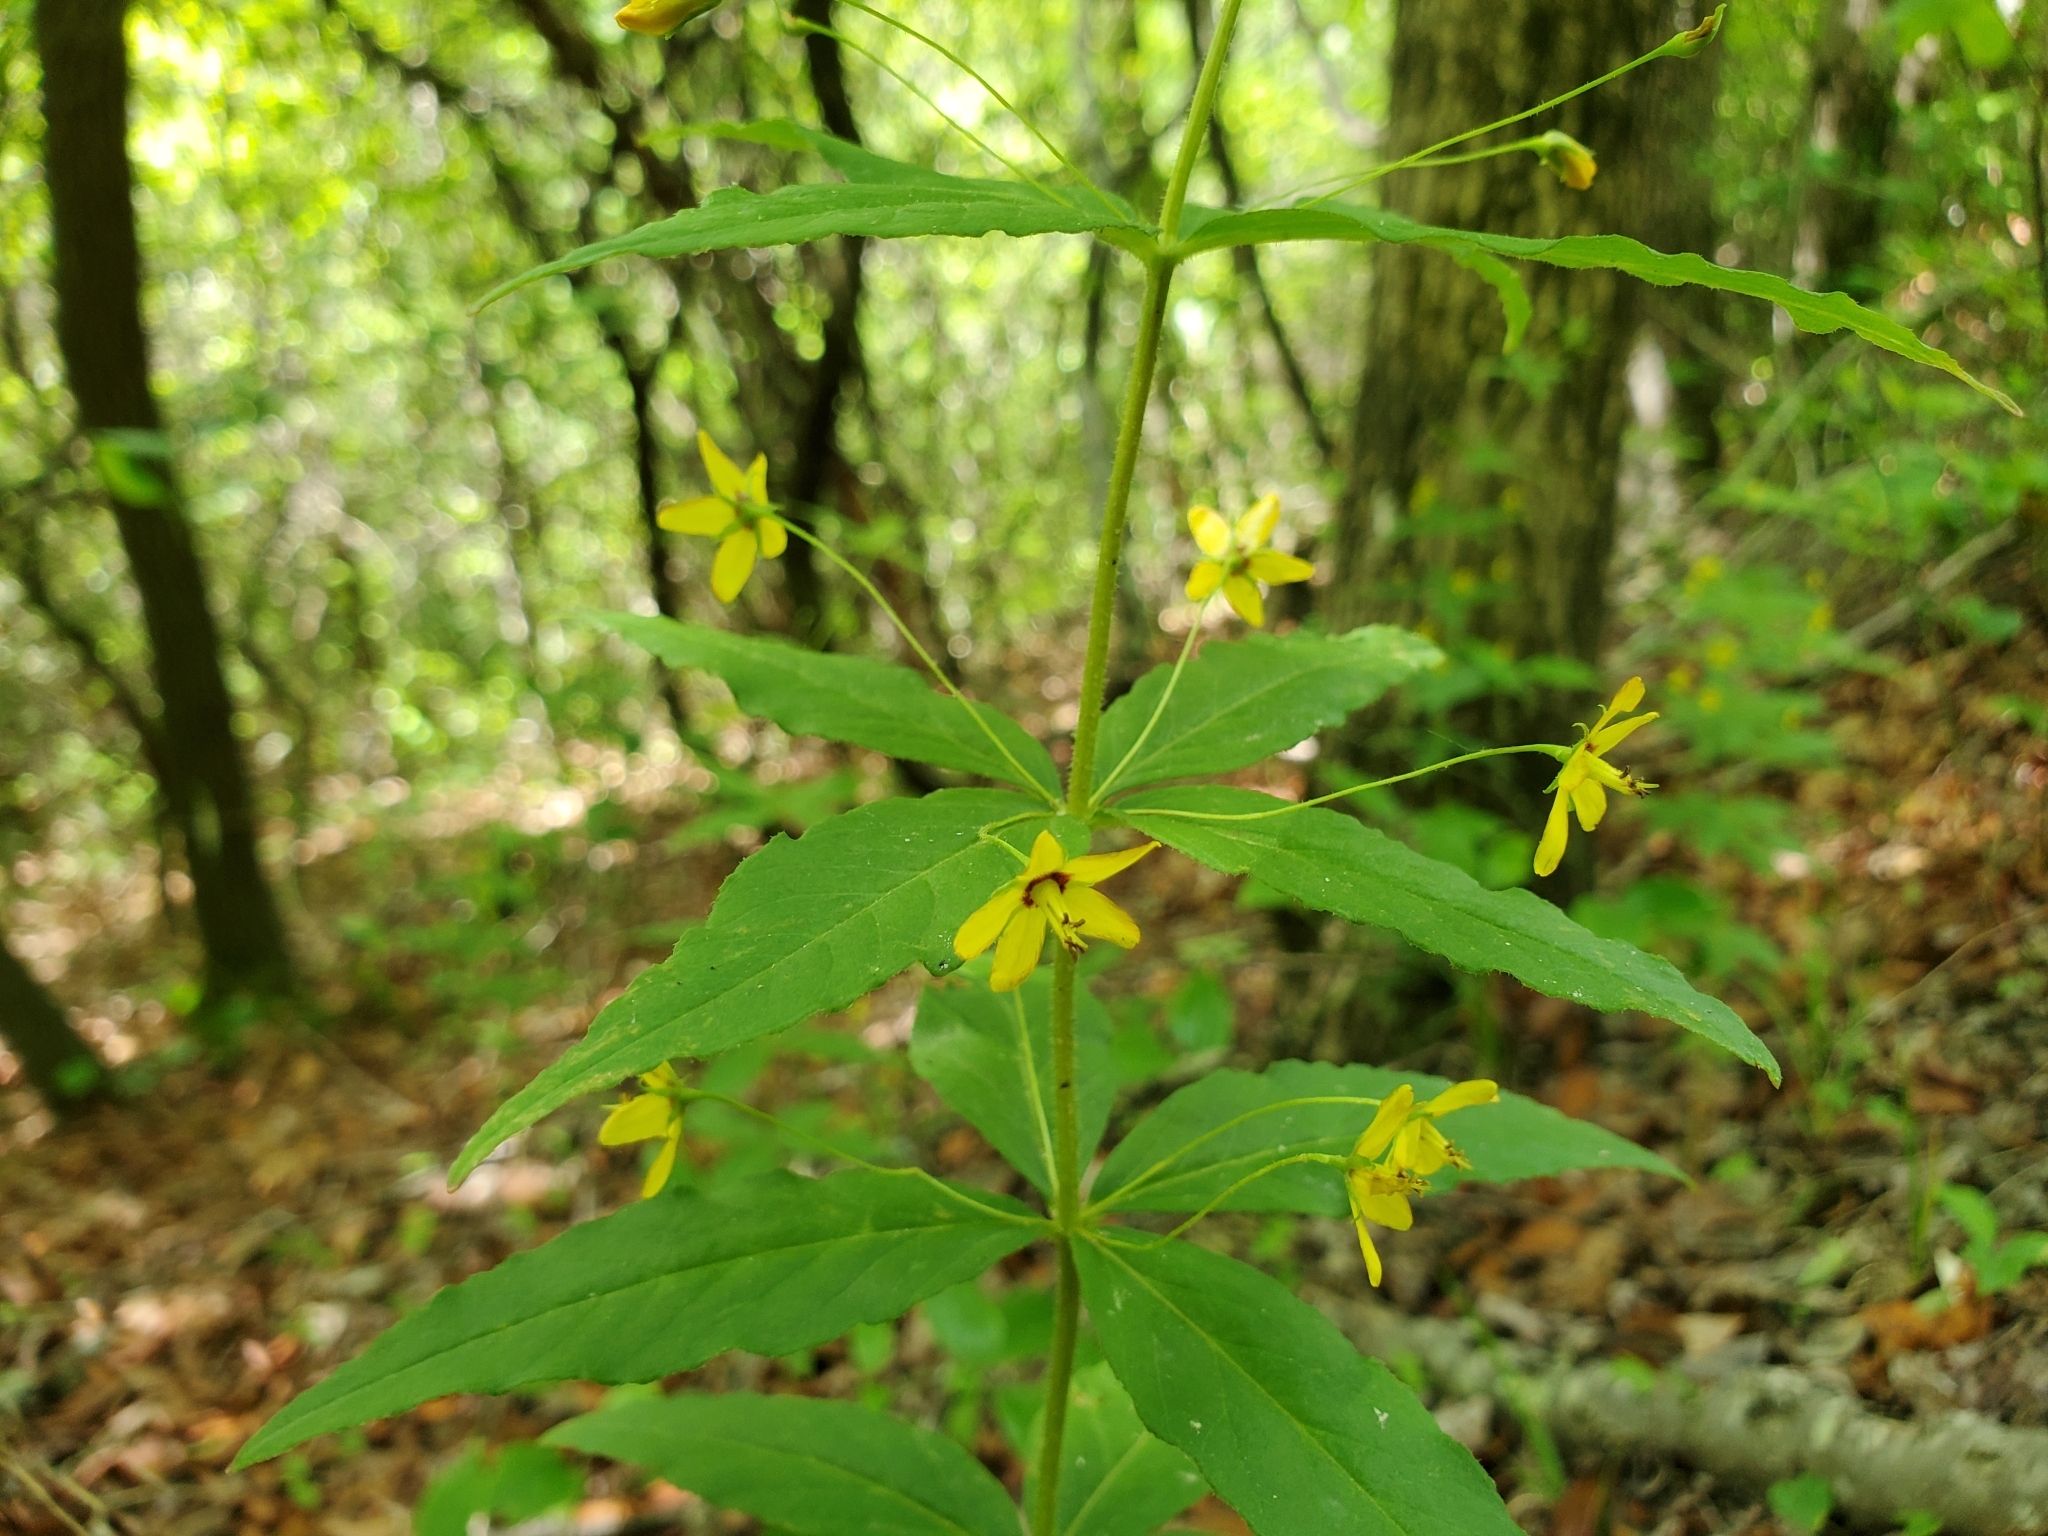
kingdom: Plantae
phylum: Tracheophyta
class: Magnoliopsida
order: Ericales
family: Primulaceae
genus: Lysimachia
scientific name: Lysimachia quadrifolia
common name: Whorled loosestrife
